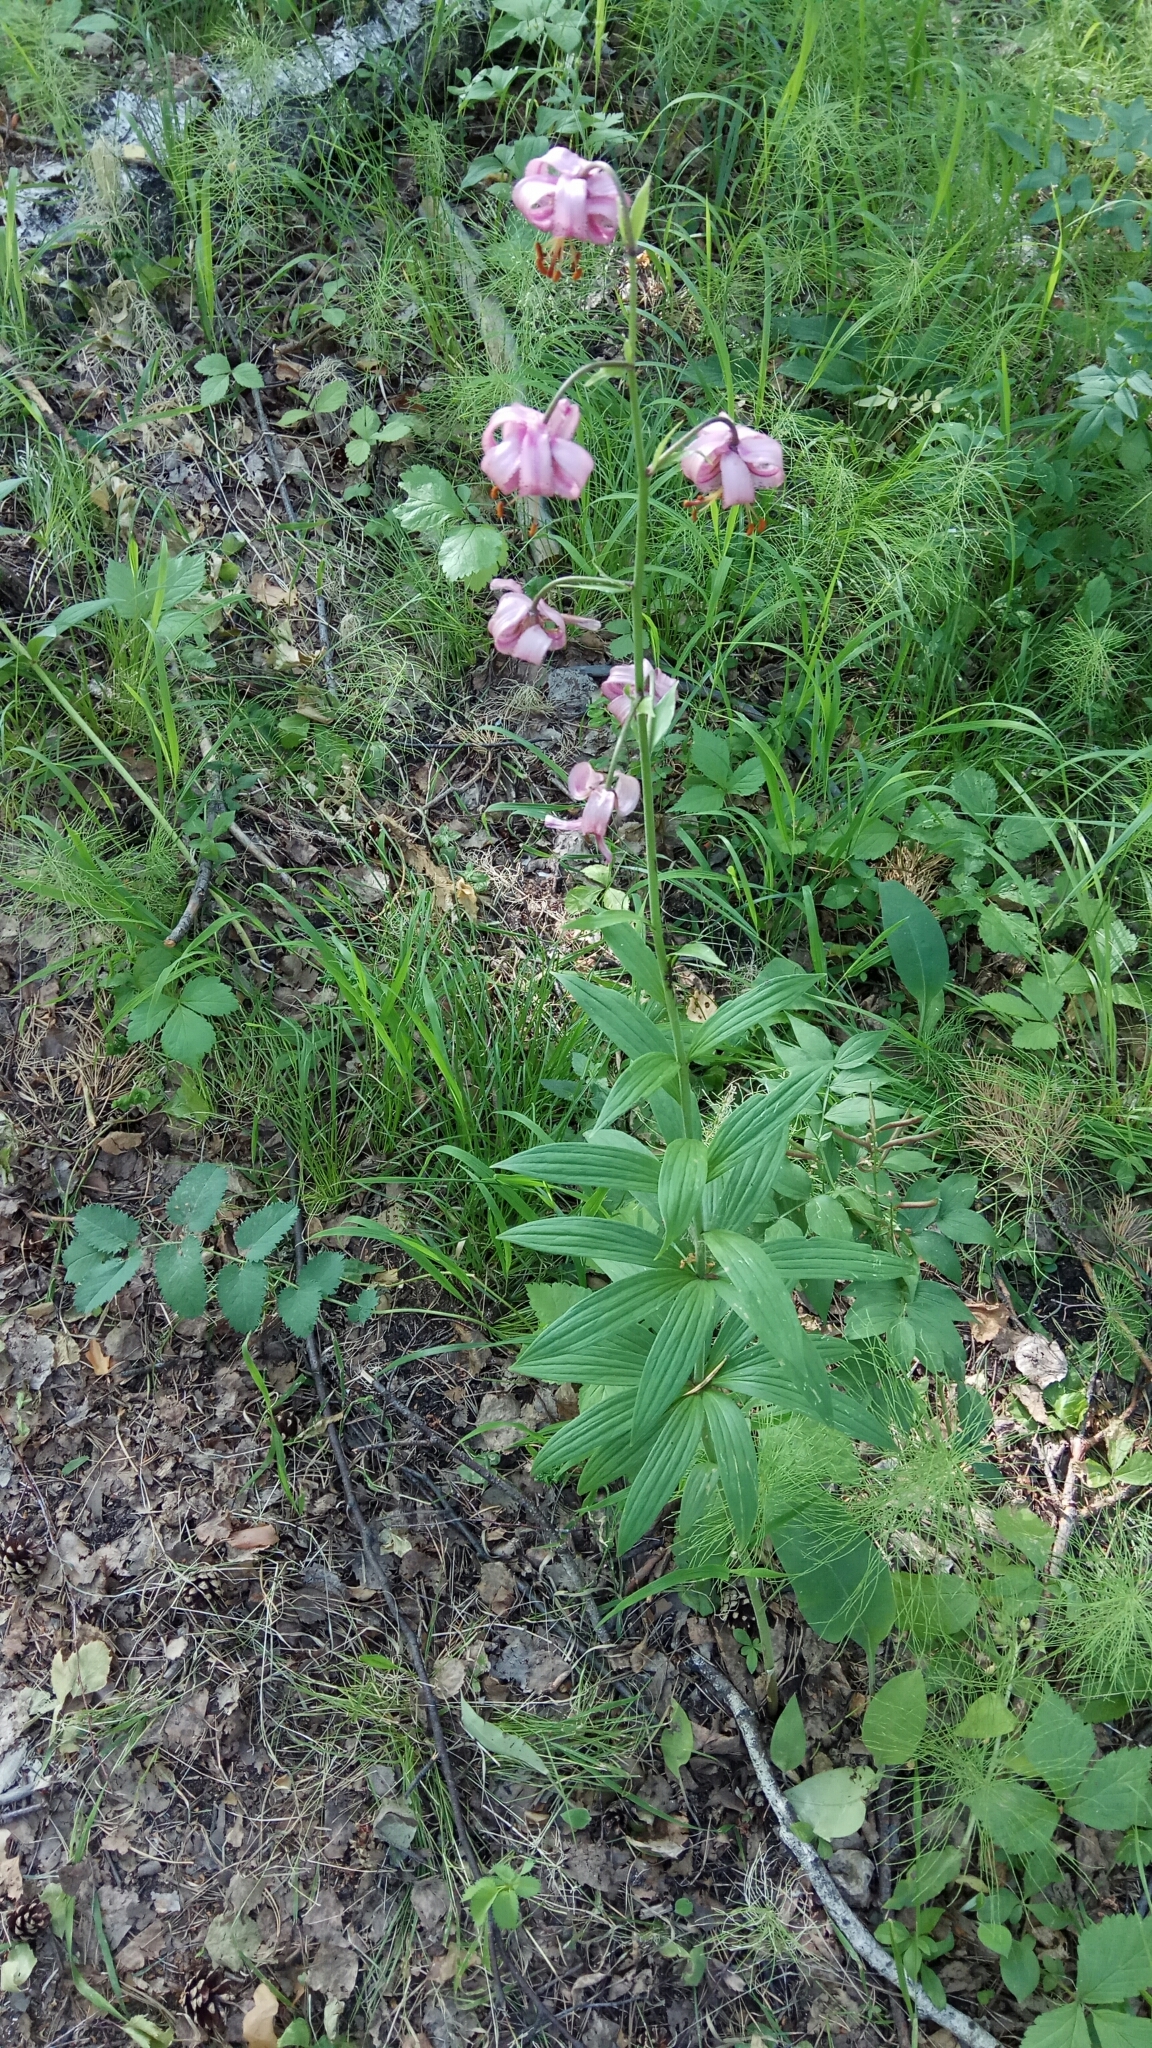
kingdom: Plantae
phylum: Tracheophyta
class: Liliopsida
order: Liliales
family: Liliaceae
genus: Lilium
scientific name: Lilium martagon
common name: Martagon lily
